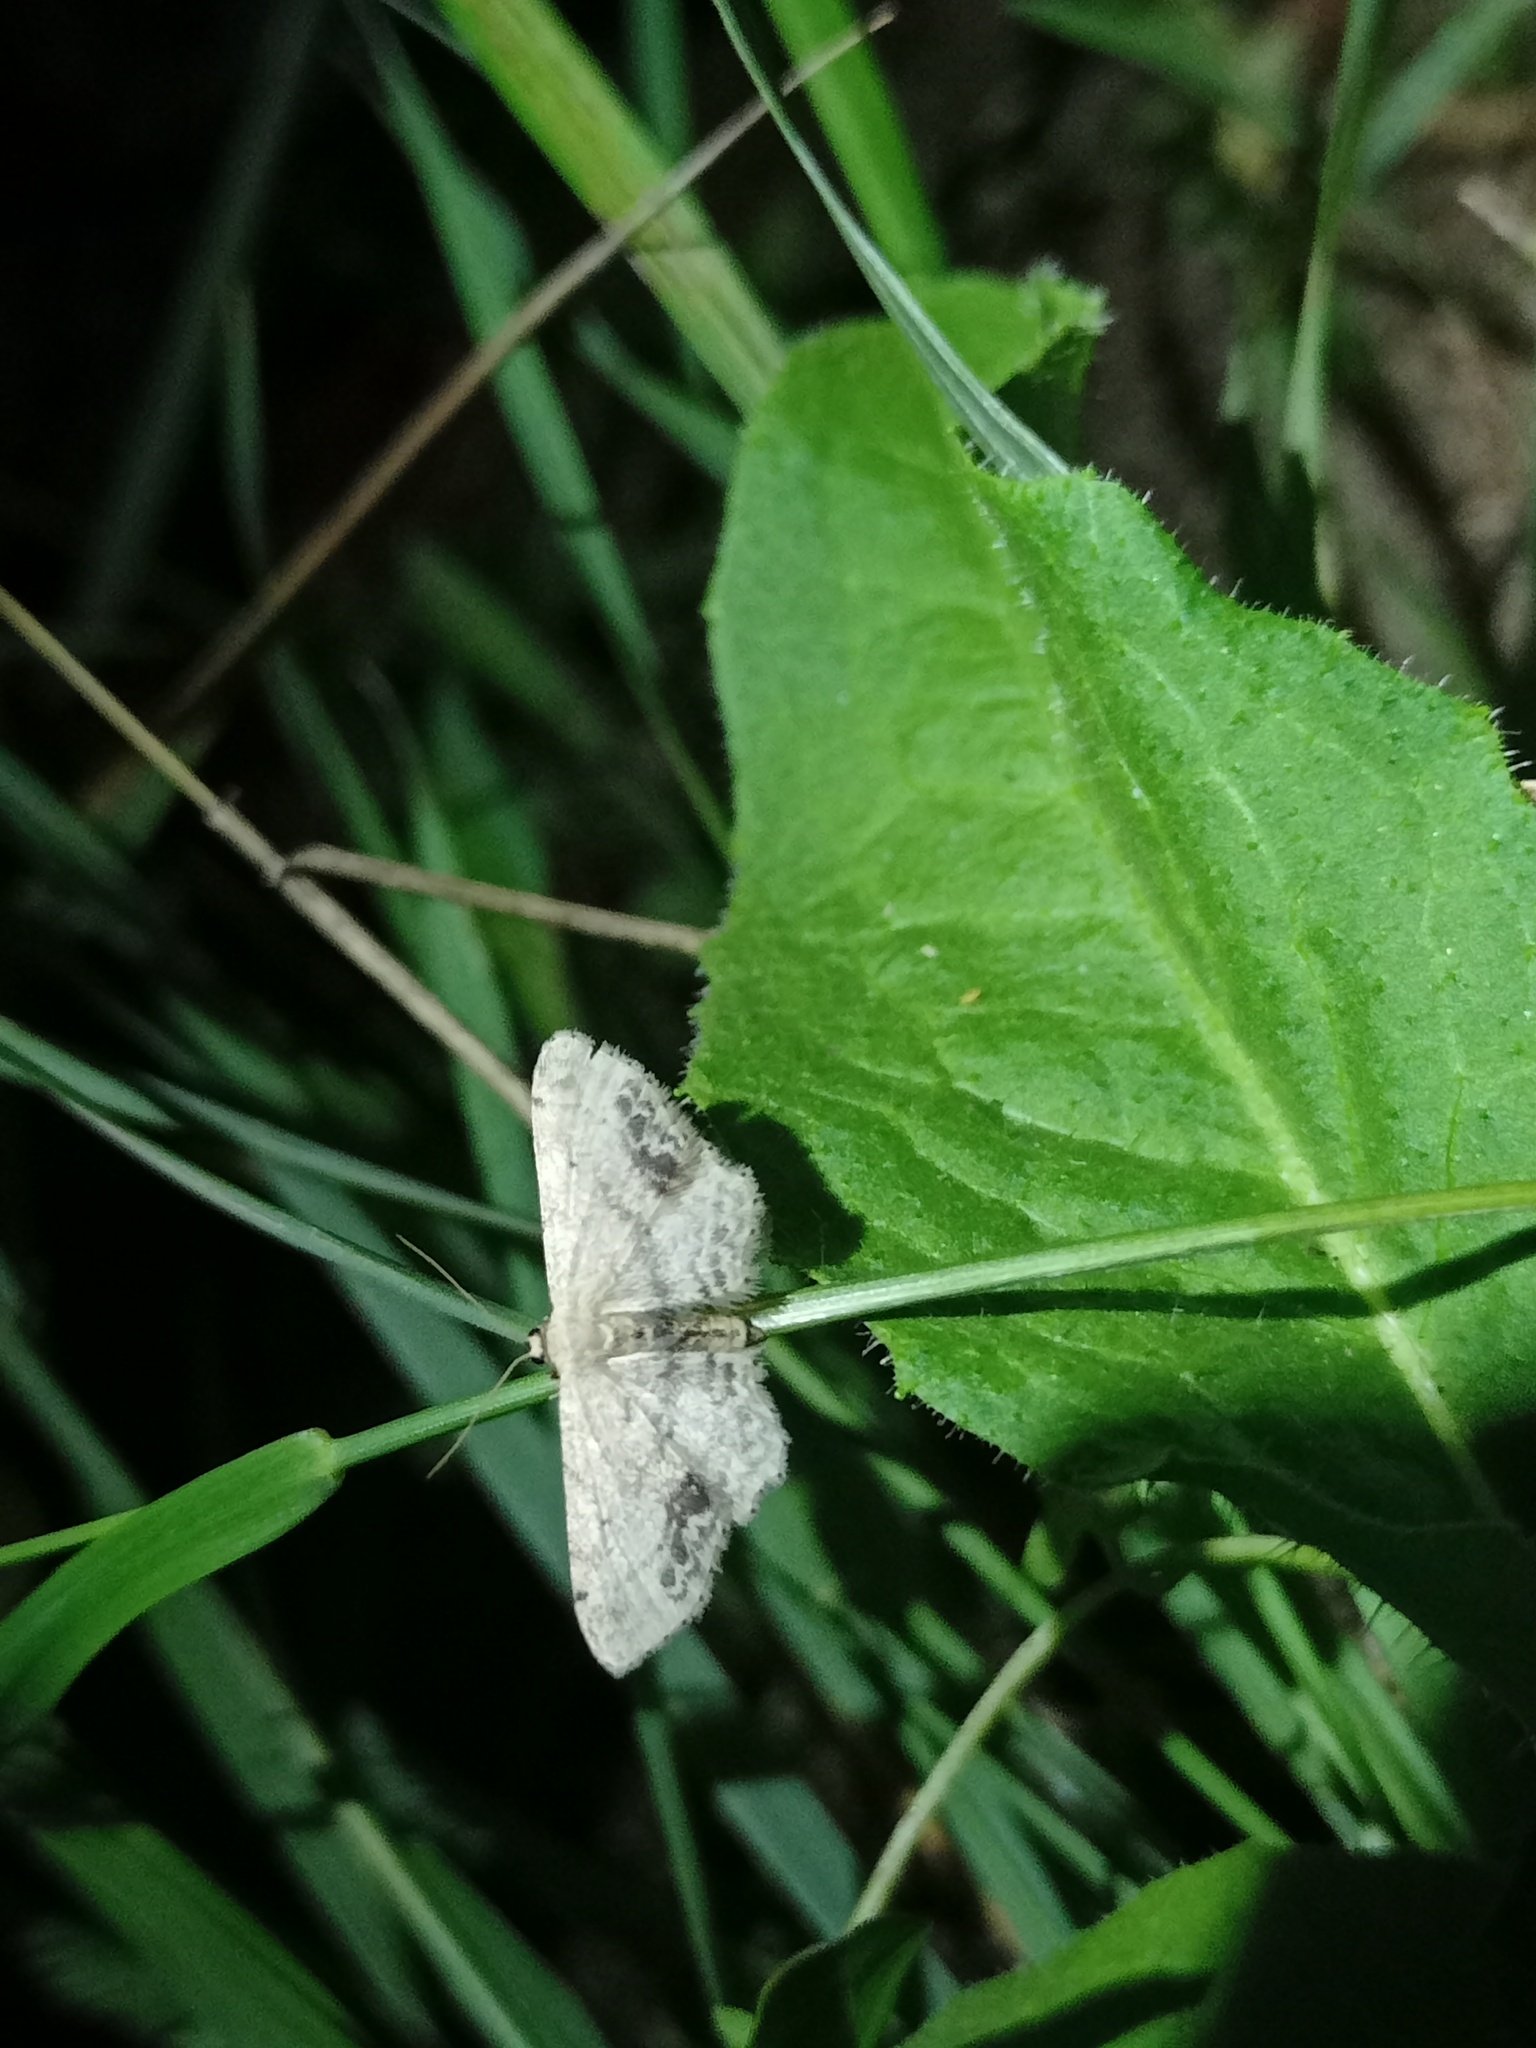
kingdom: Animalia
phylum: Arthropoda
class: Insecta
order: Lepidoptera
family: Geometridae
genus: Idaea
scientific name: Idaea dimidiata
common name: Single-dotted wave
